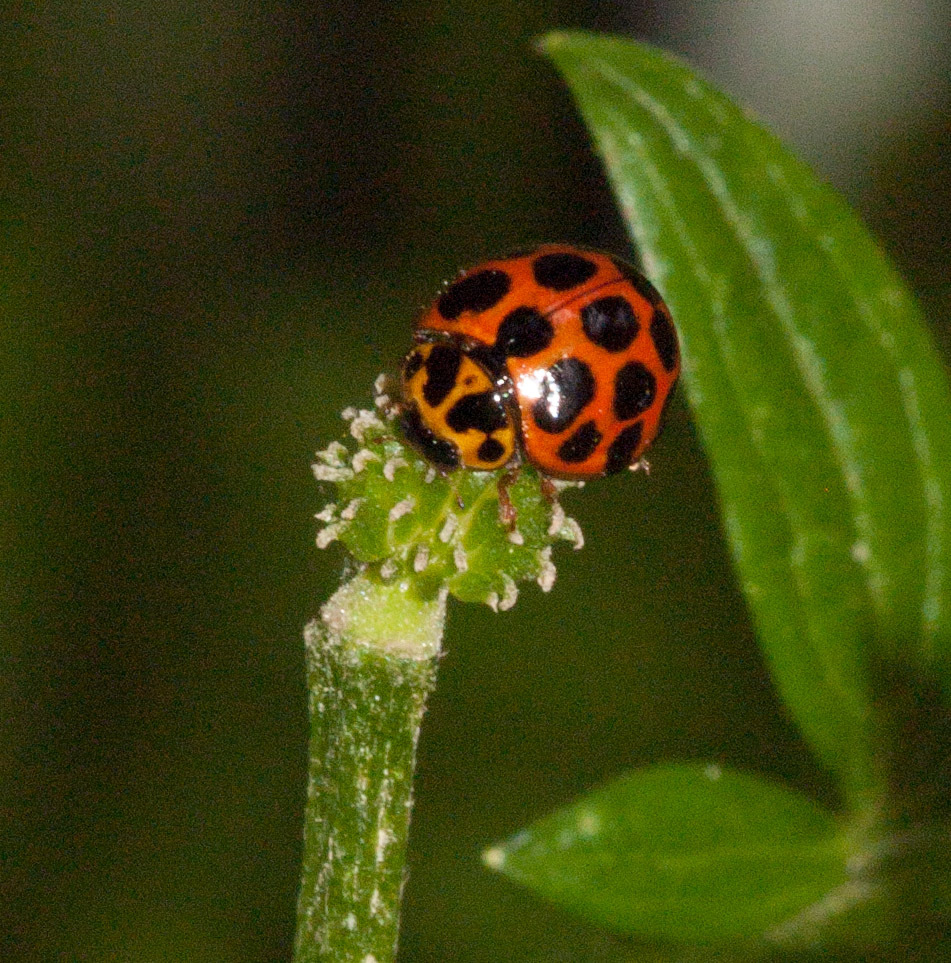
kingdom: Animalia
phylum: Arthropoda
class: Insecta
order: Coleoptera
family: Coccinellidae
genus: Harmonia
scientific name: Harmonia conformis
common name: Common spotted ladybird beetle
